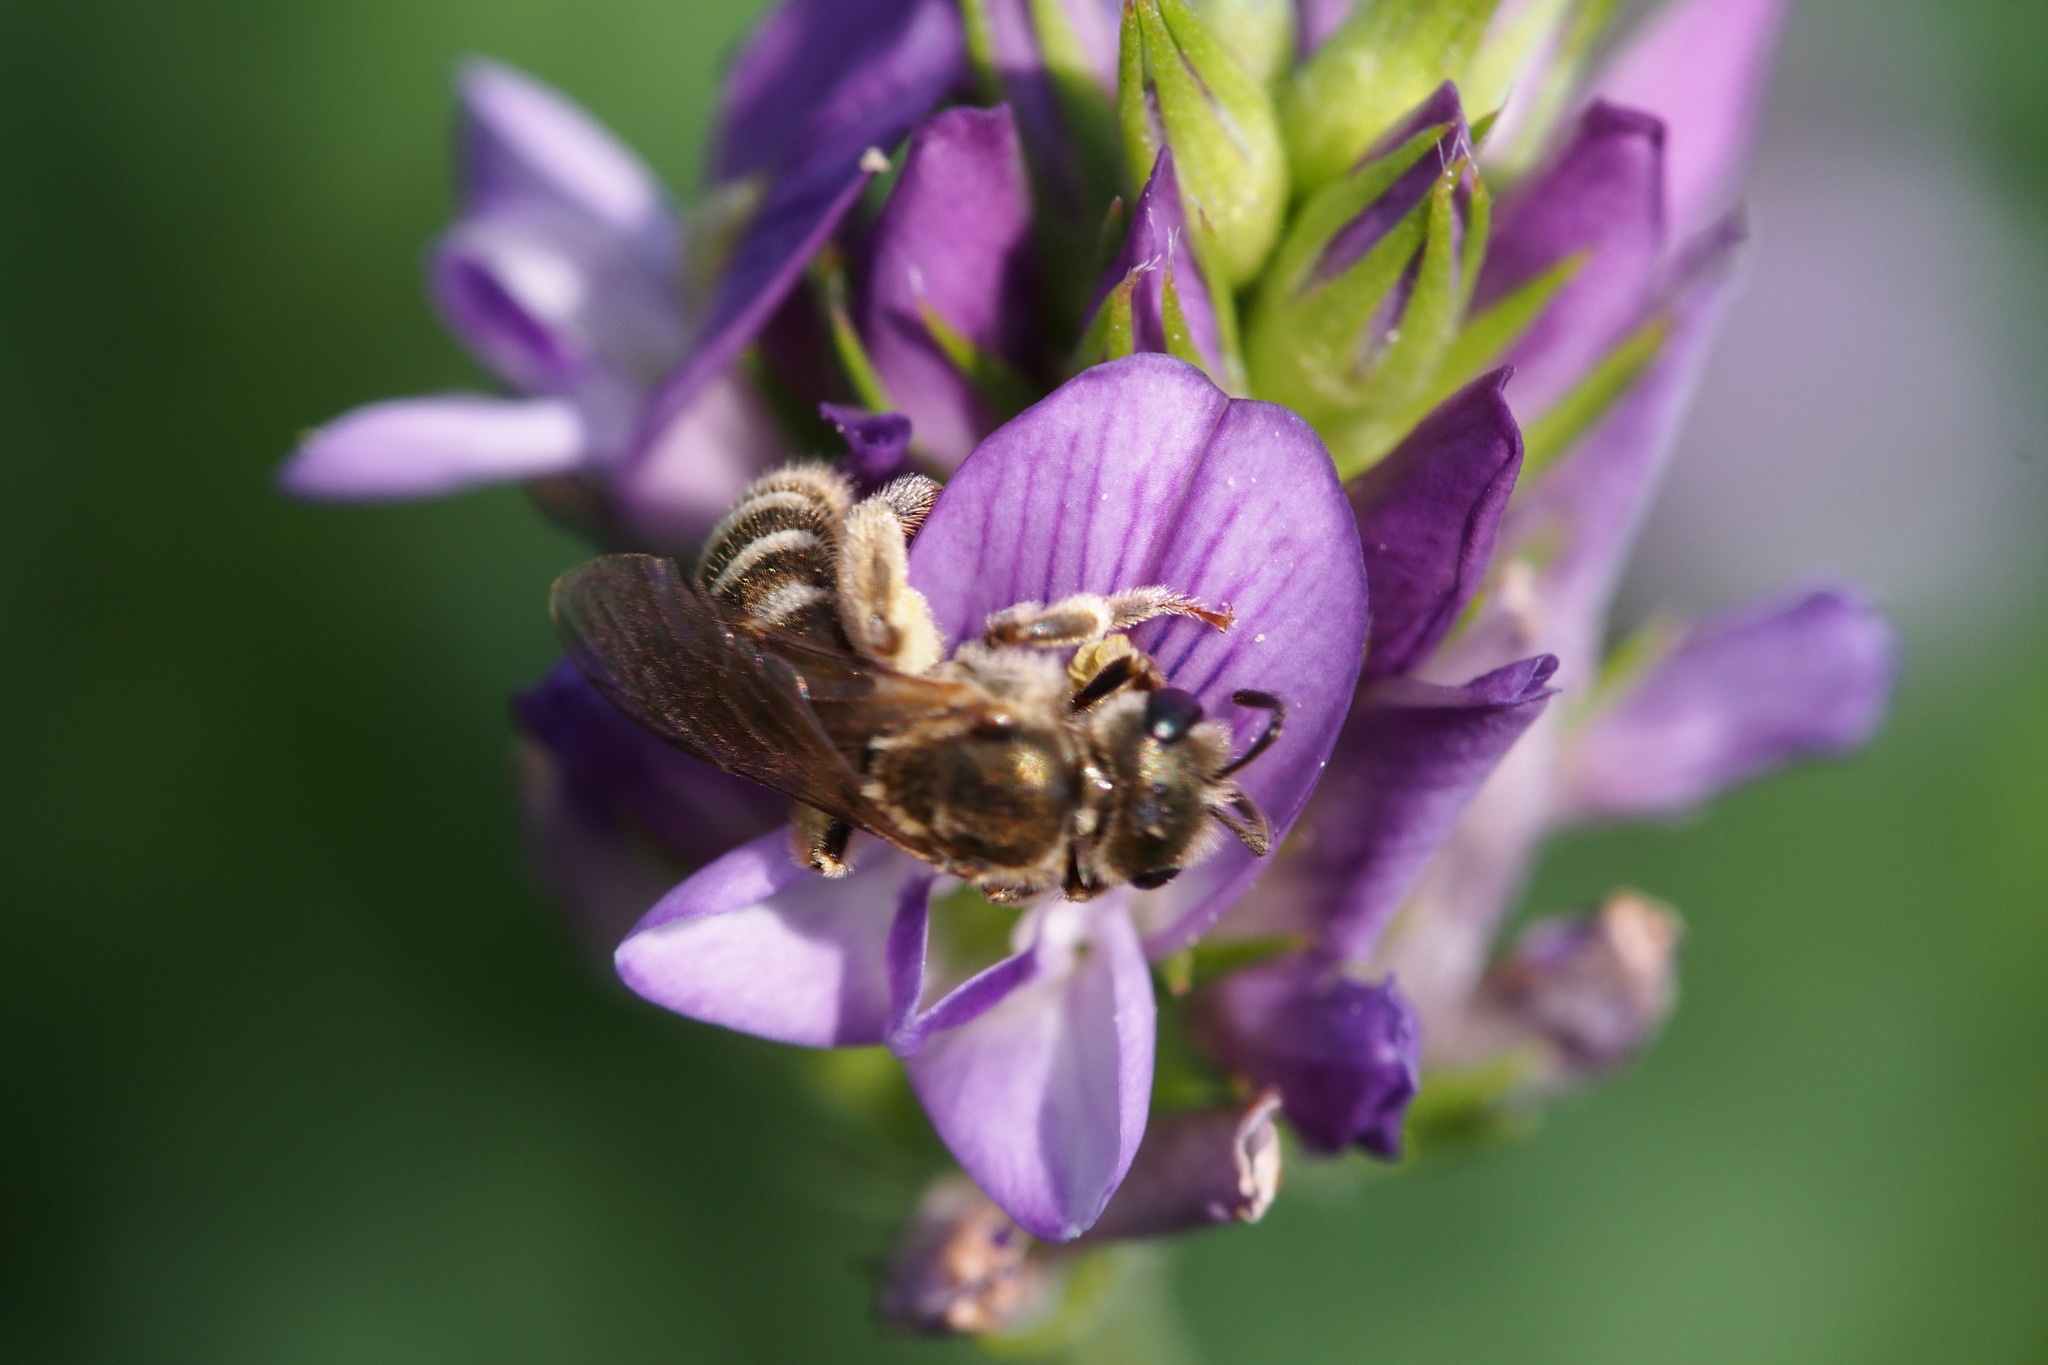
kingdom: Animalia
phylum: Arthropoda
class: Insecta
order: Hymenoptera
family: Halictidae
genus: Halictus
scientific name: Halictus aerarius
